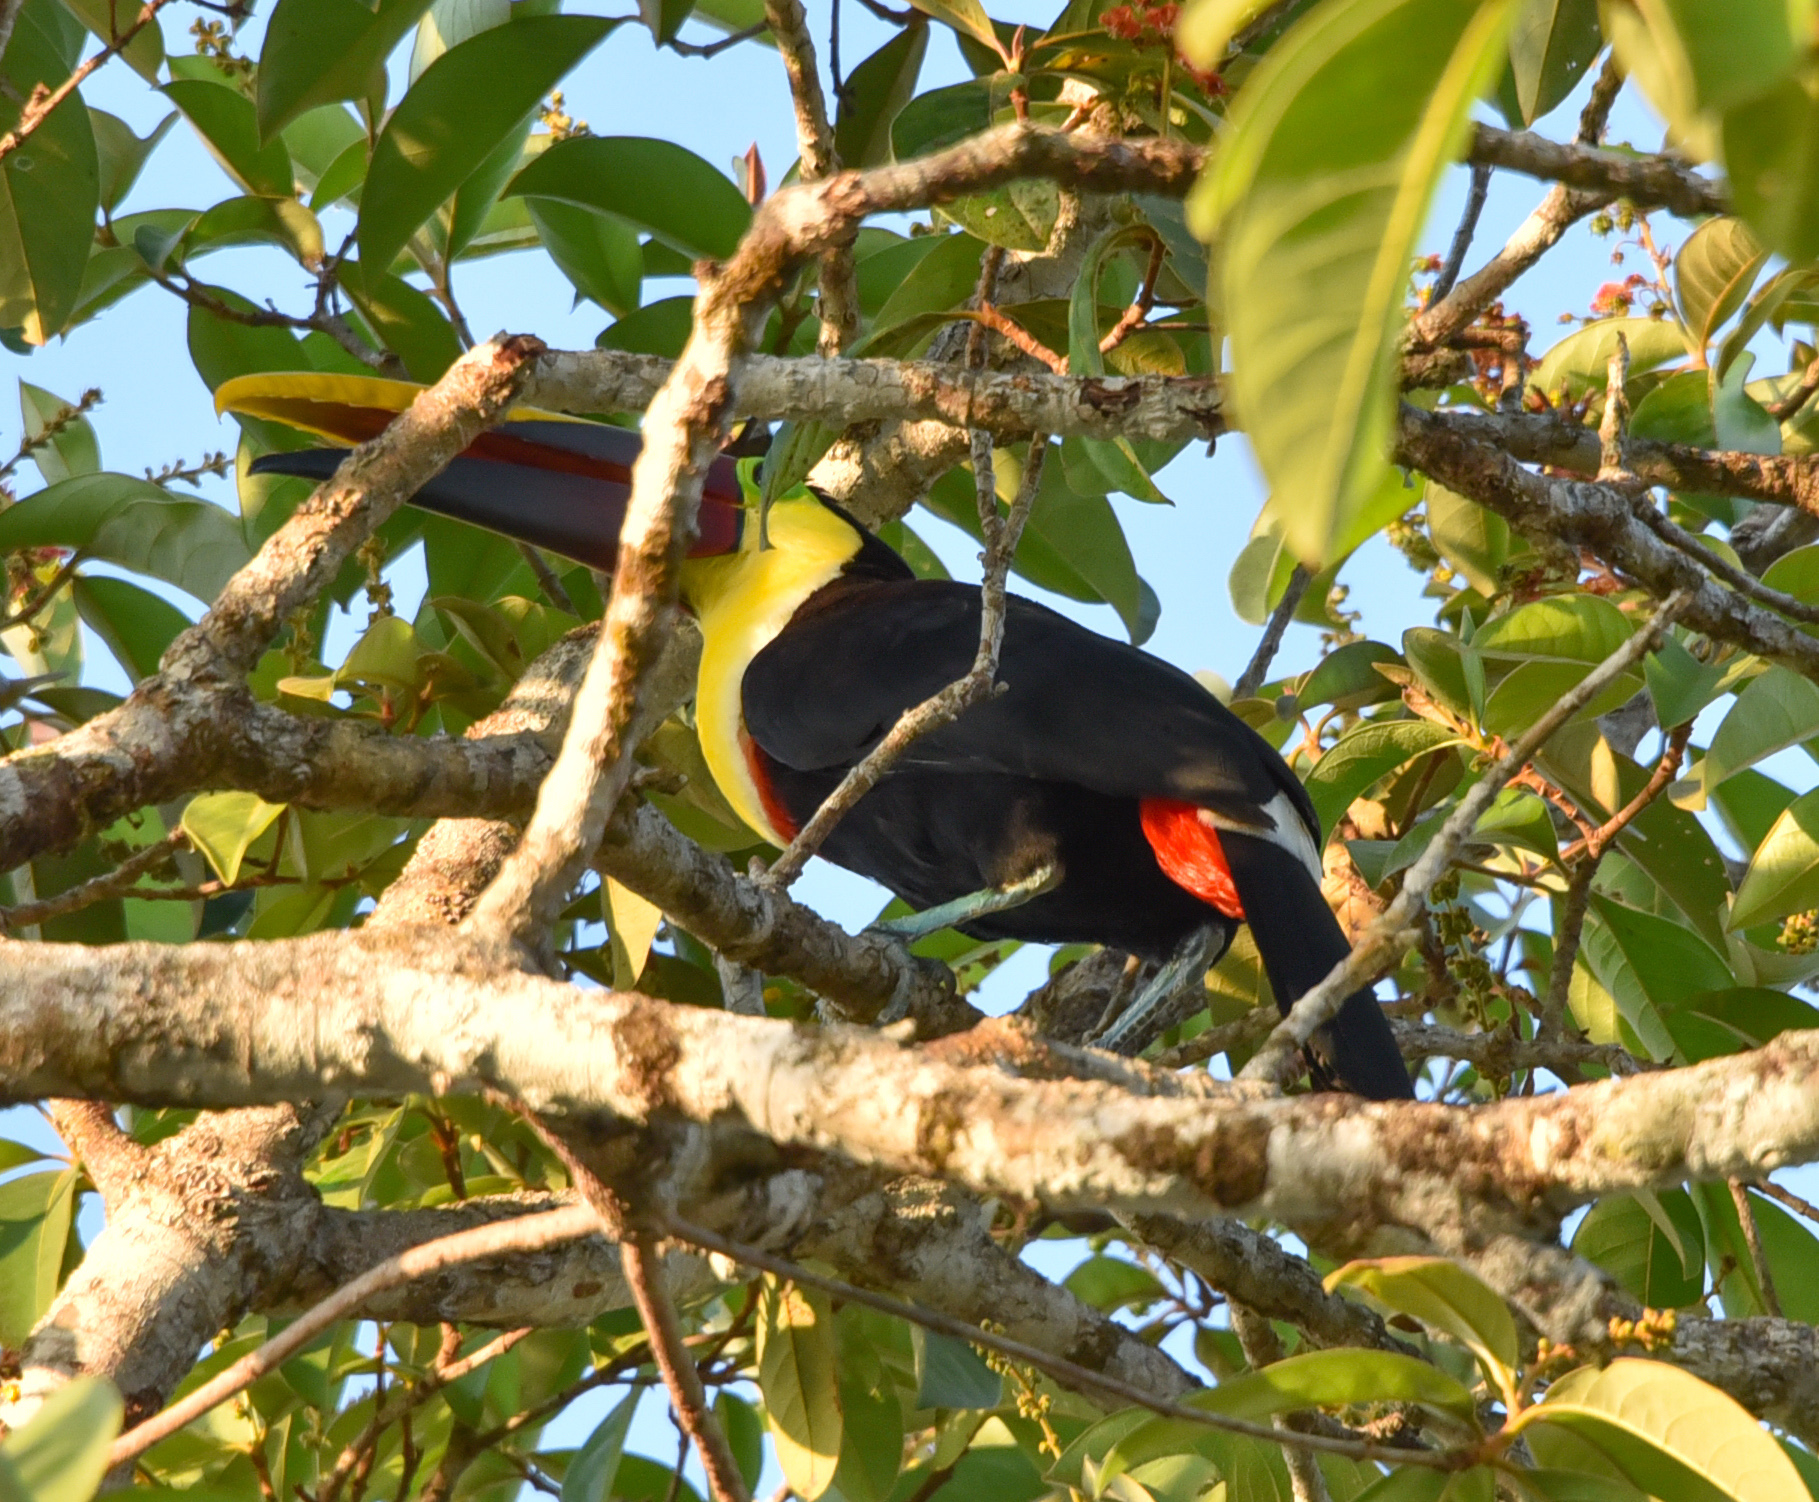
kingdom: Animalia
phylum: Chordata
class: Aves
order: Piciformes
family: Ramphastidae
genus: Ramphastos
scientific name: Ramphastos ambiguus
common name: Yellow-throated toucan
